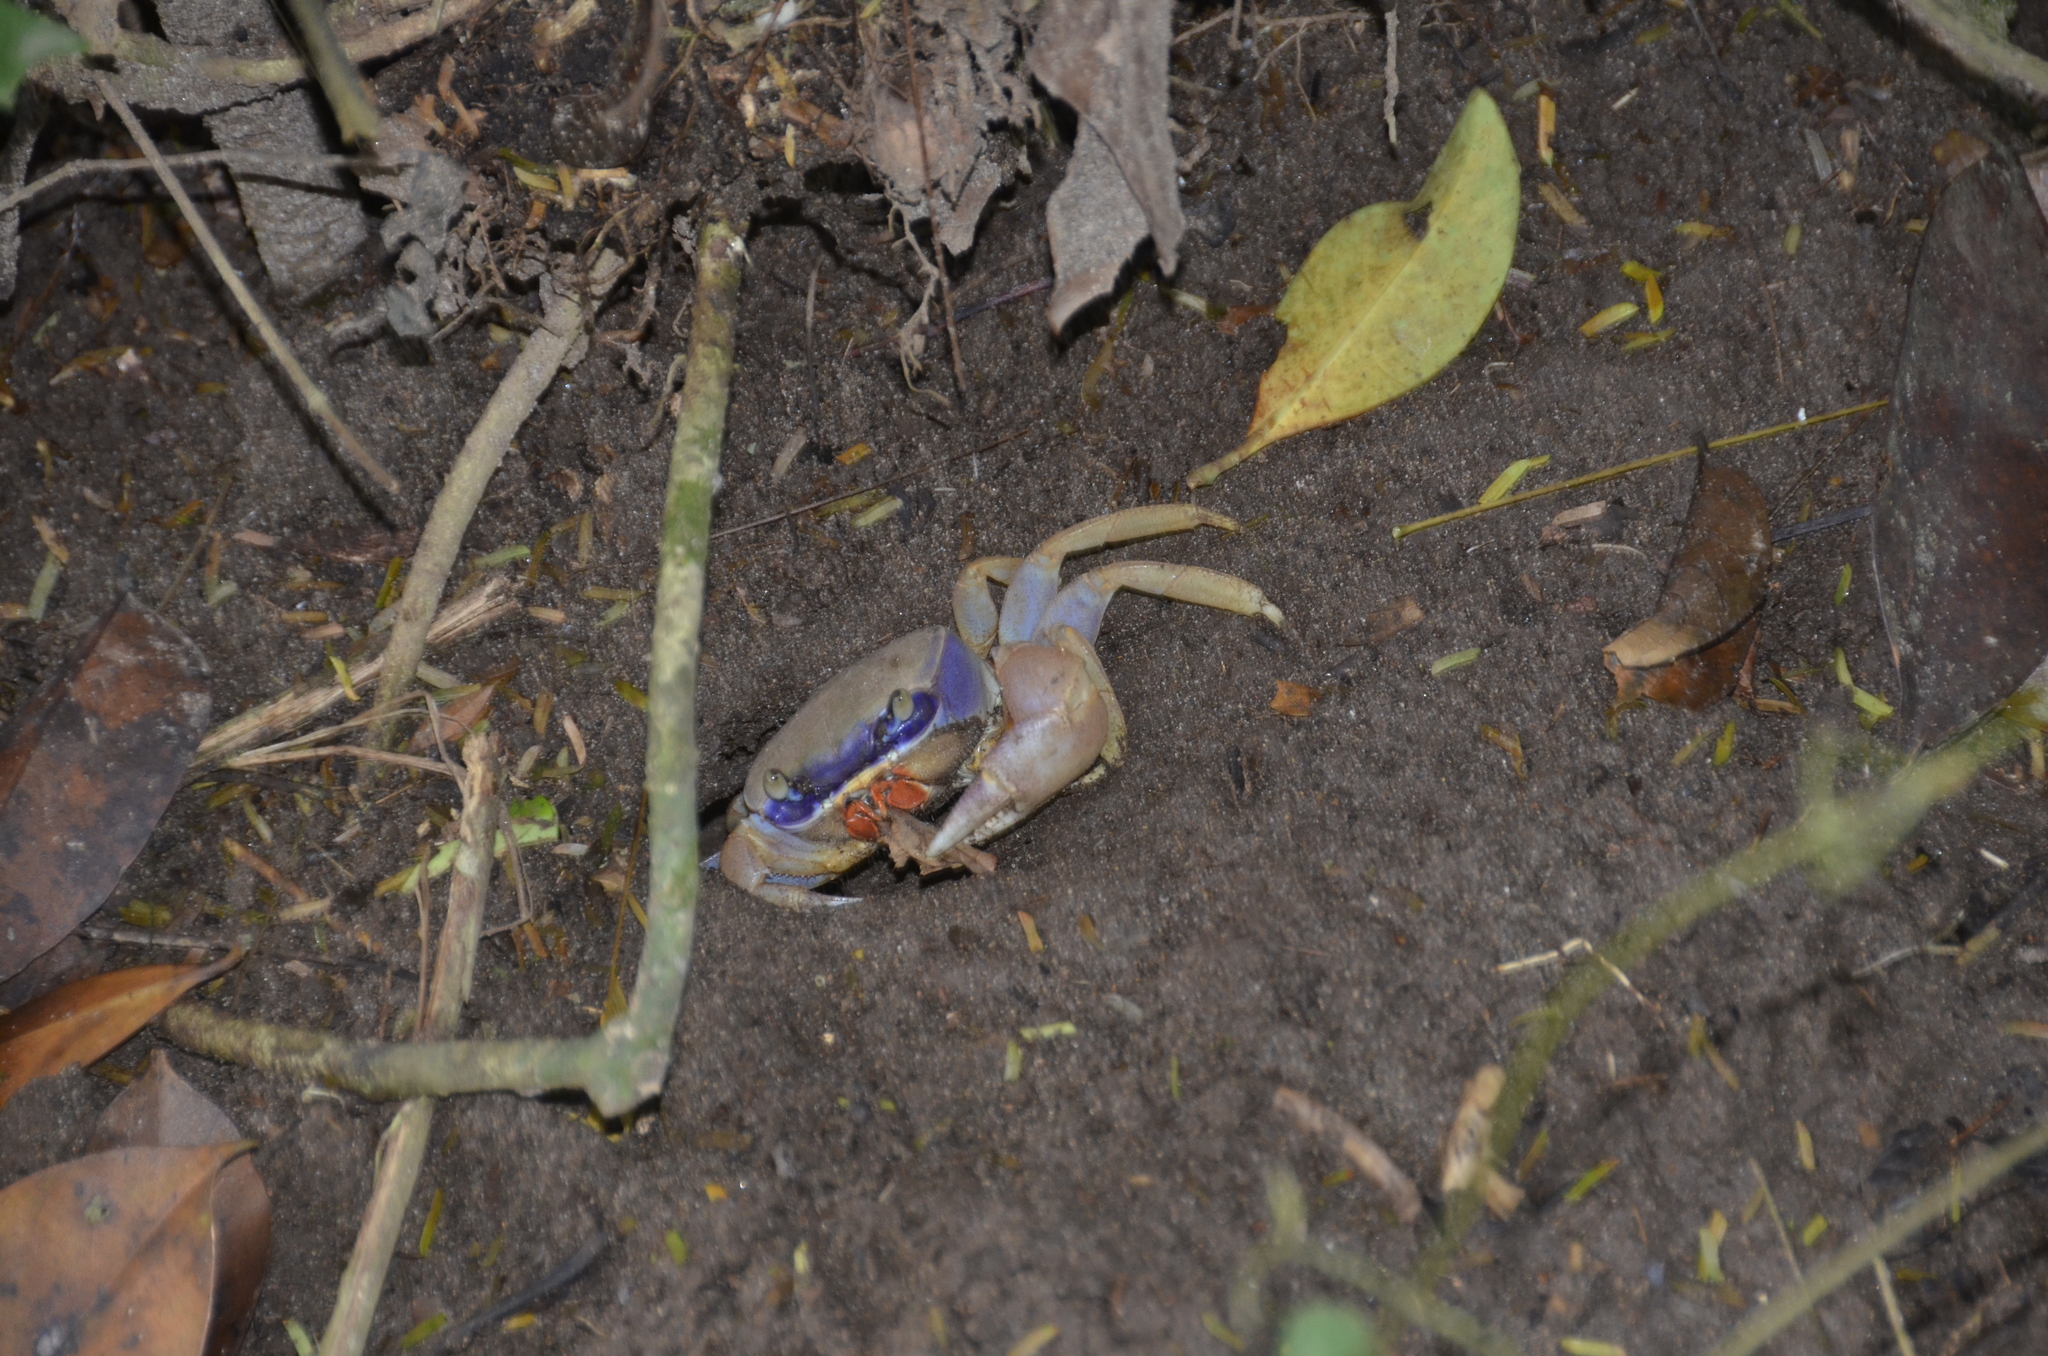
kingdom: Animalia
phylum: Arthropoda
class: Malacostraca
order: Decapoda
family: Gecarcinidae
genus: Cardisoma
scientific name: Cardisoma guanhumi
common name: Great land crab
